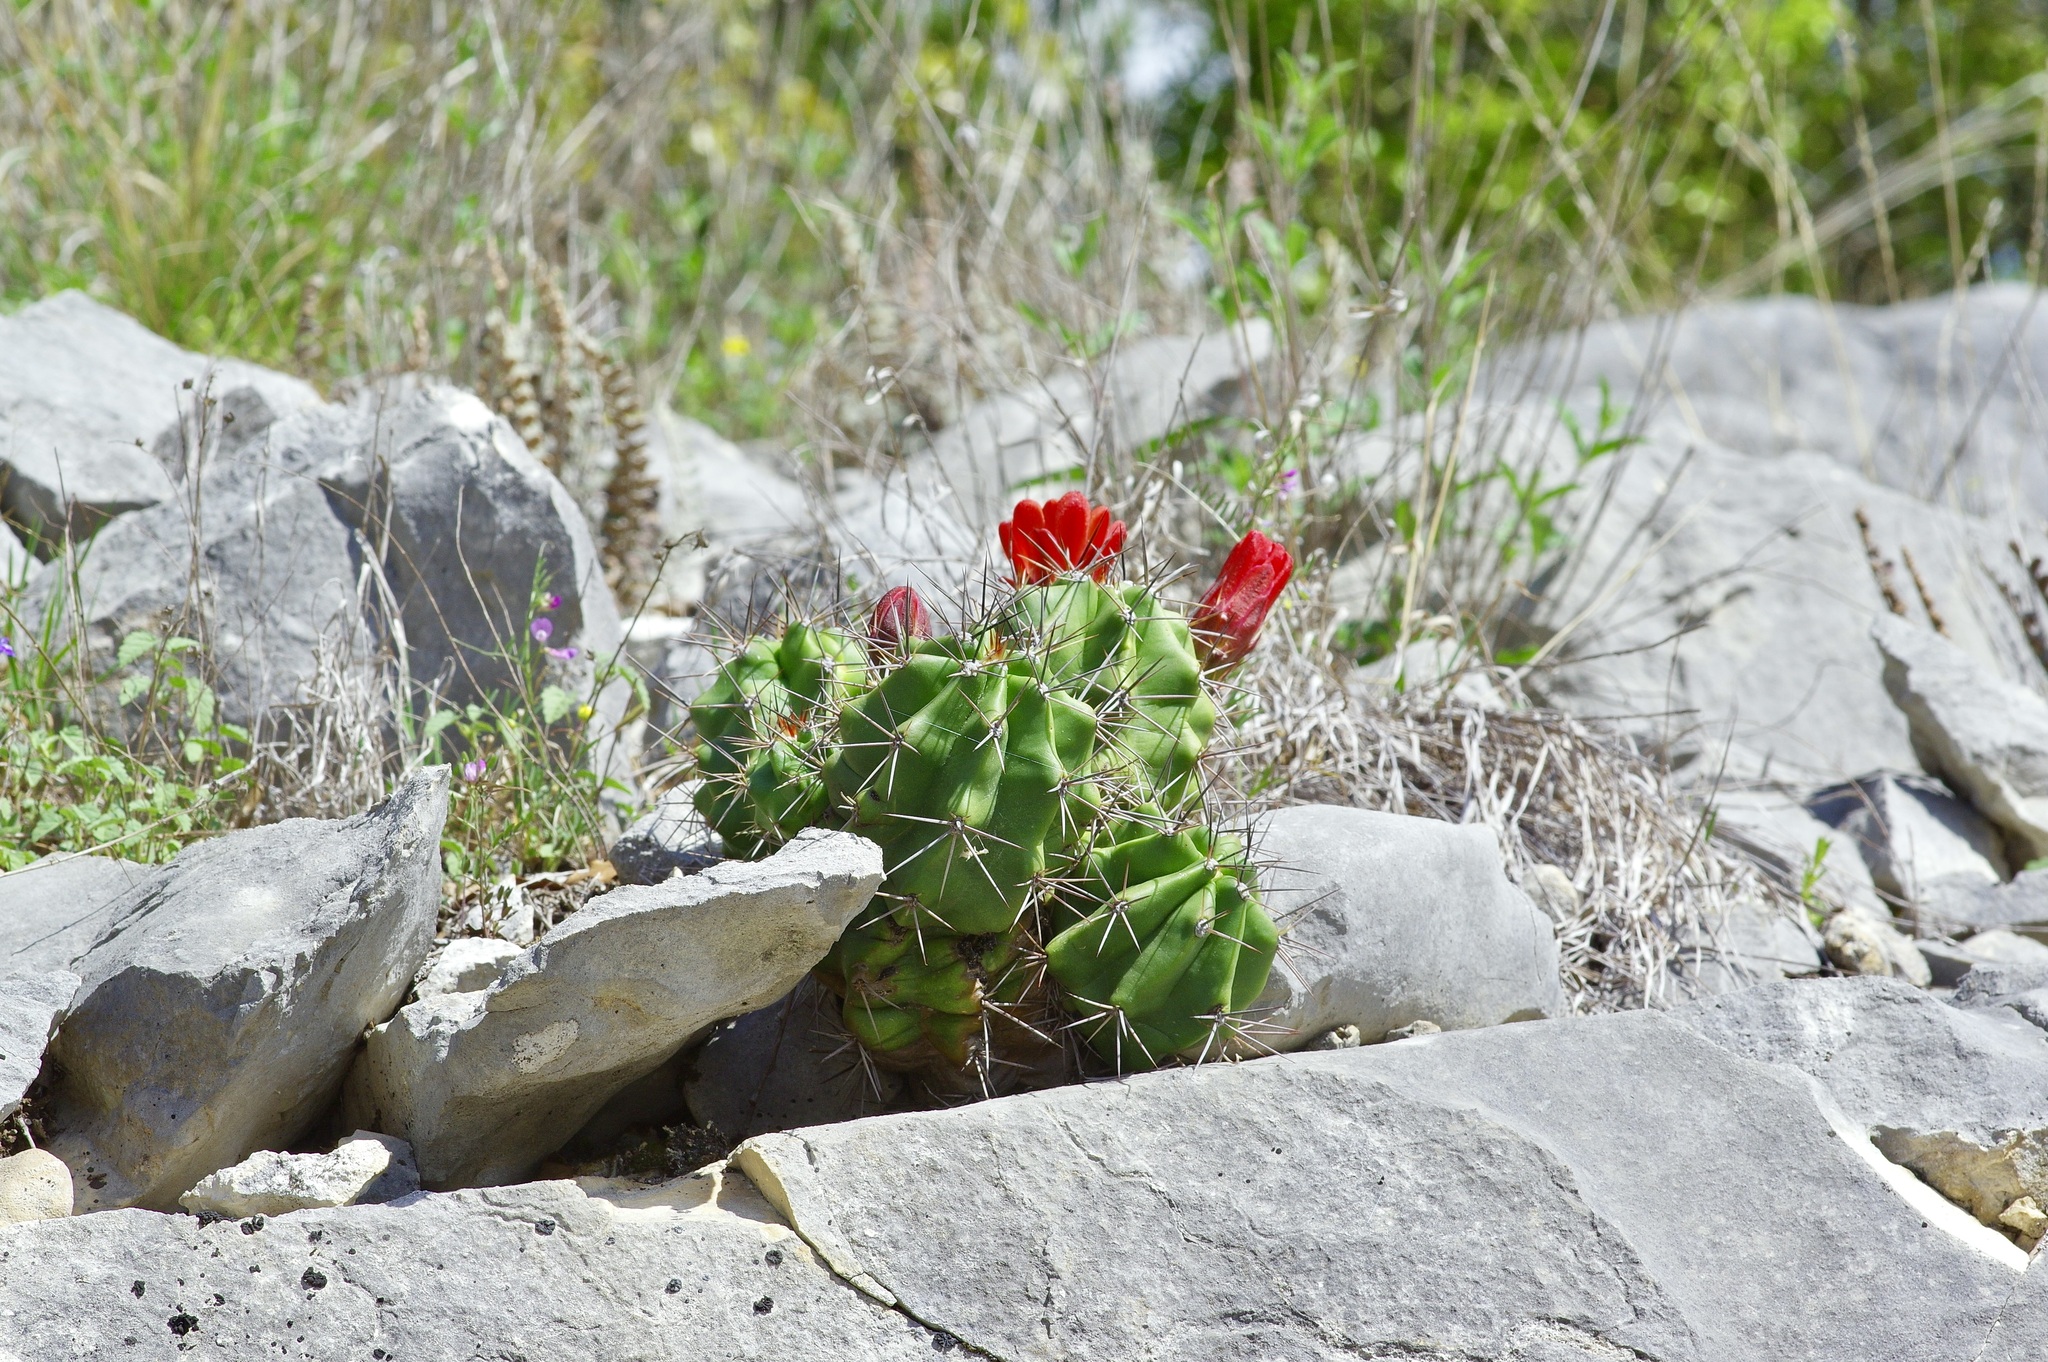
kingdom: Plantae
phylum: Tracheophyta
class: Magnoliopsida
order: Caryophyllales
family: Cactaceae
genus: Echinocereus
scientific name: Echinocereus coccineus
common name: Scarlet hedgehog cactus
